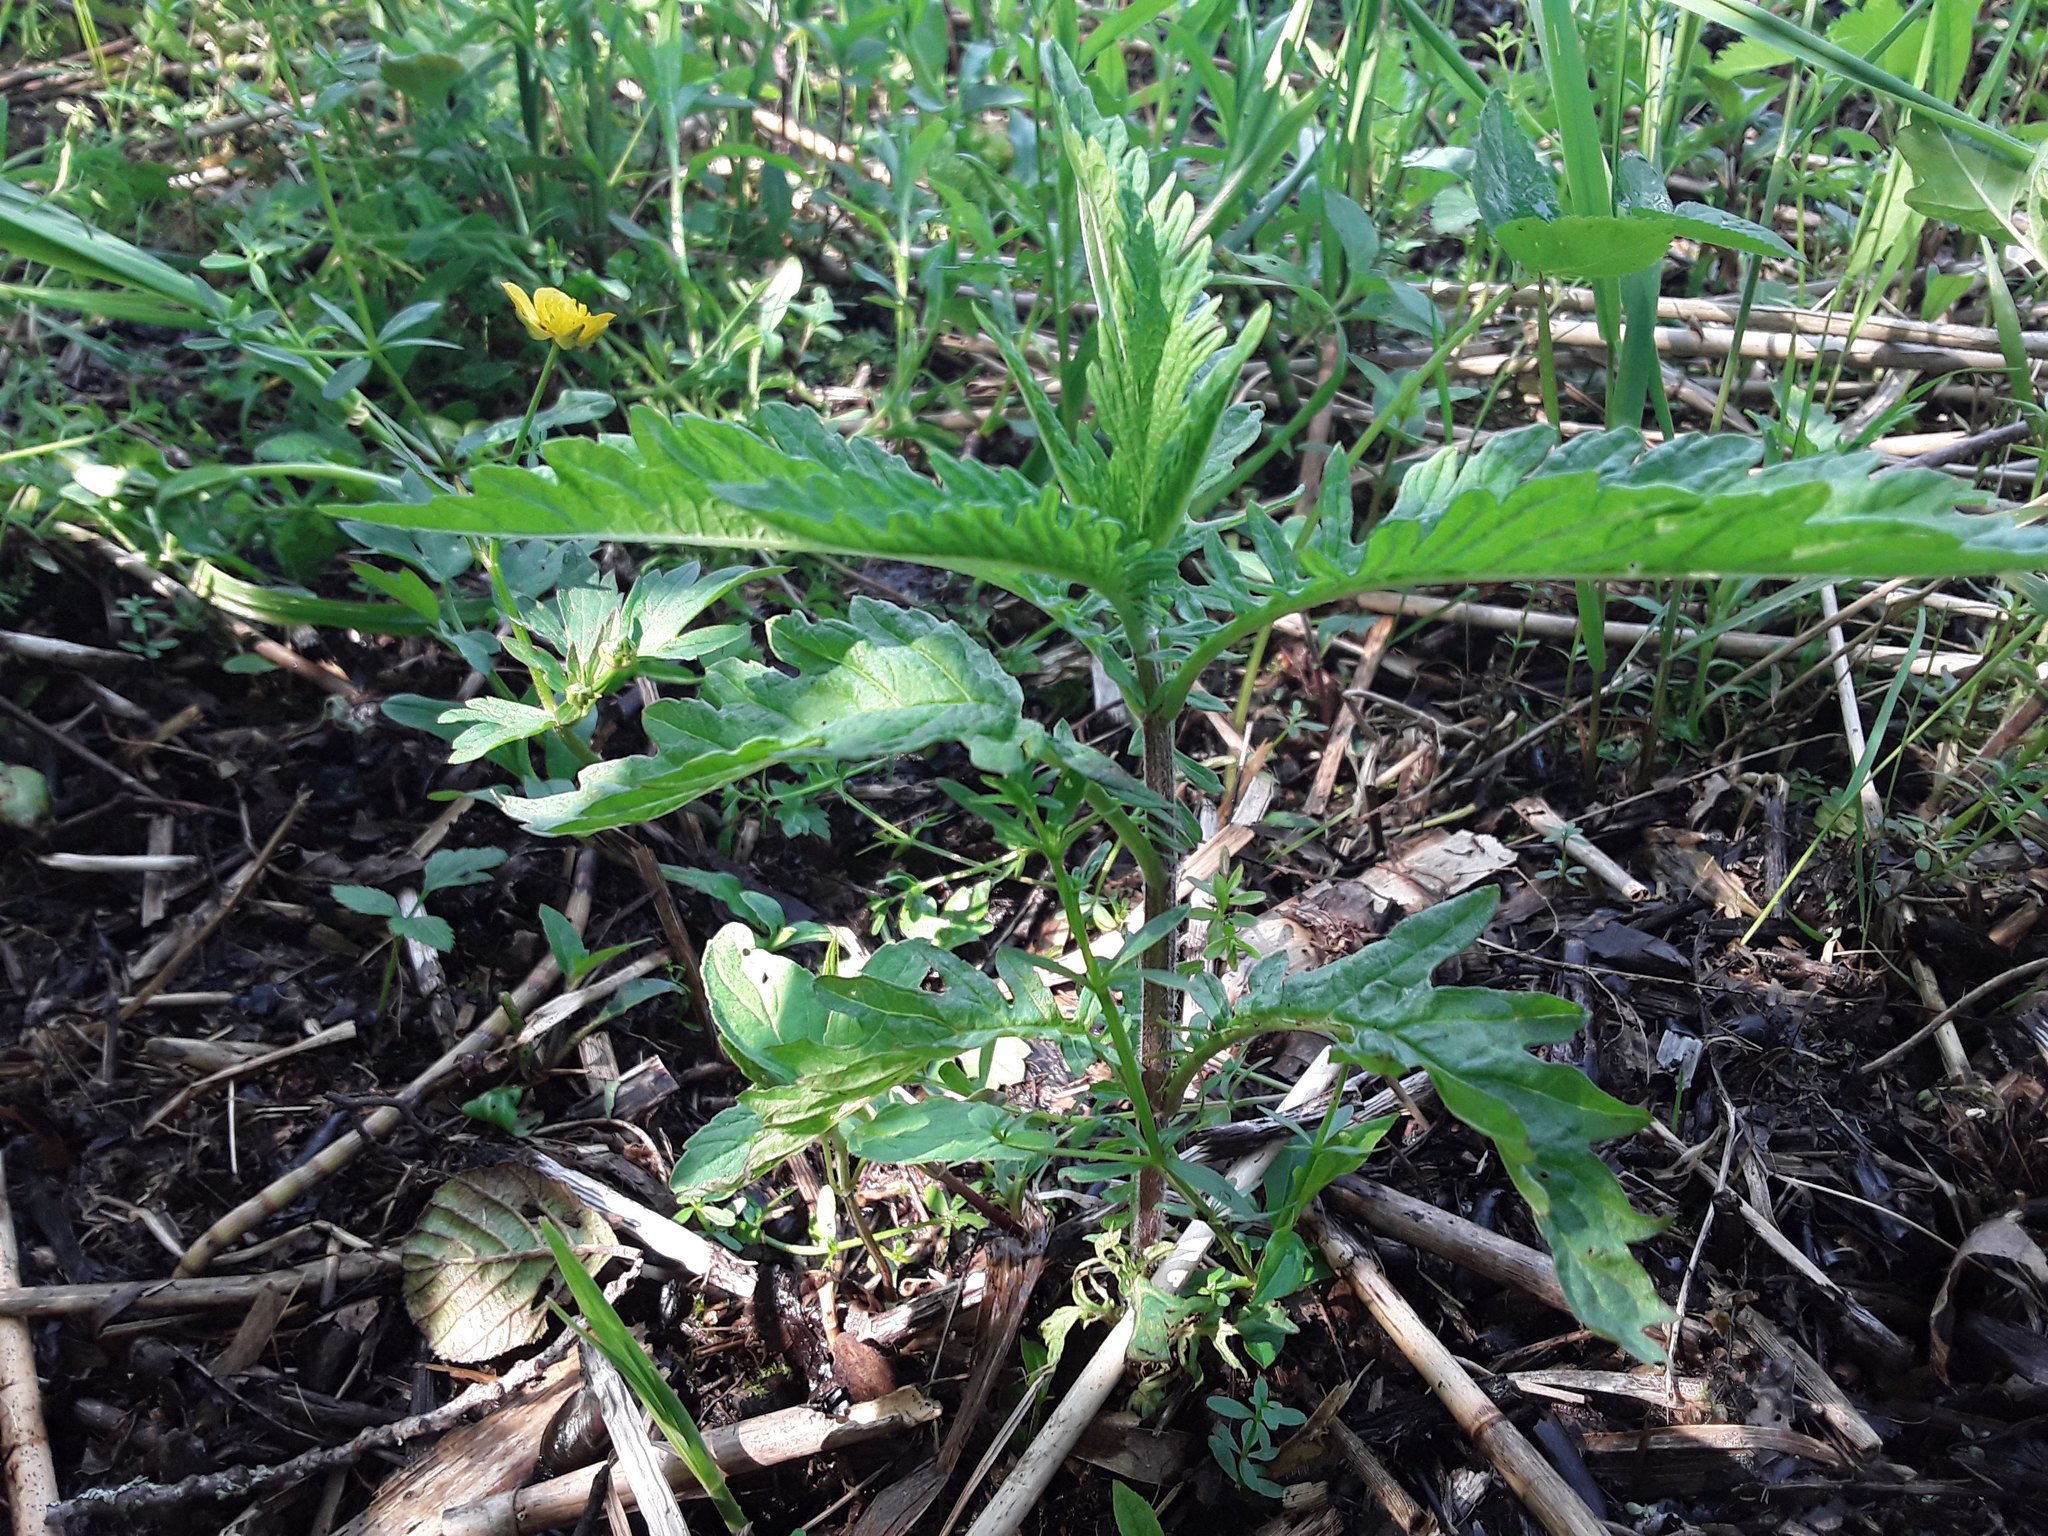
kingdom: Plantae
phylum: Tracheophyta
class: Magnoliopsida
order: Lamiales
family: Lamiaceae
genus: Lycopus
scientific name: Lycopus europaeus
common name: European bugleweed
